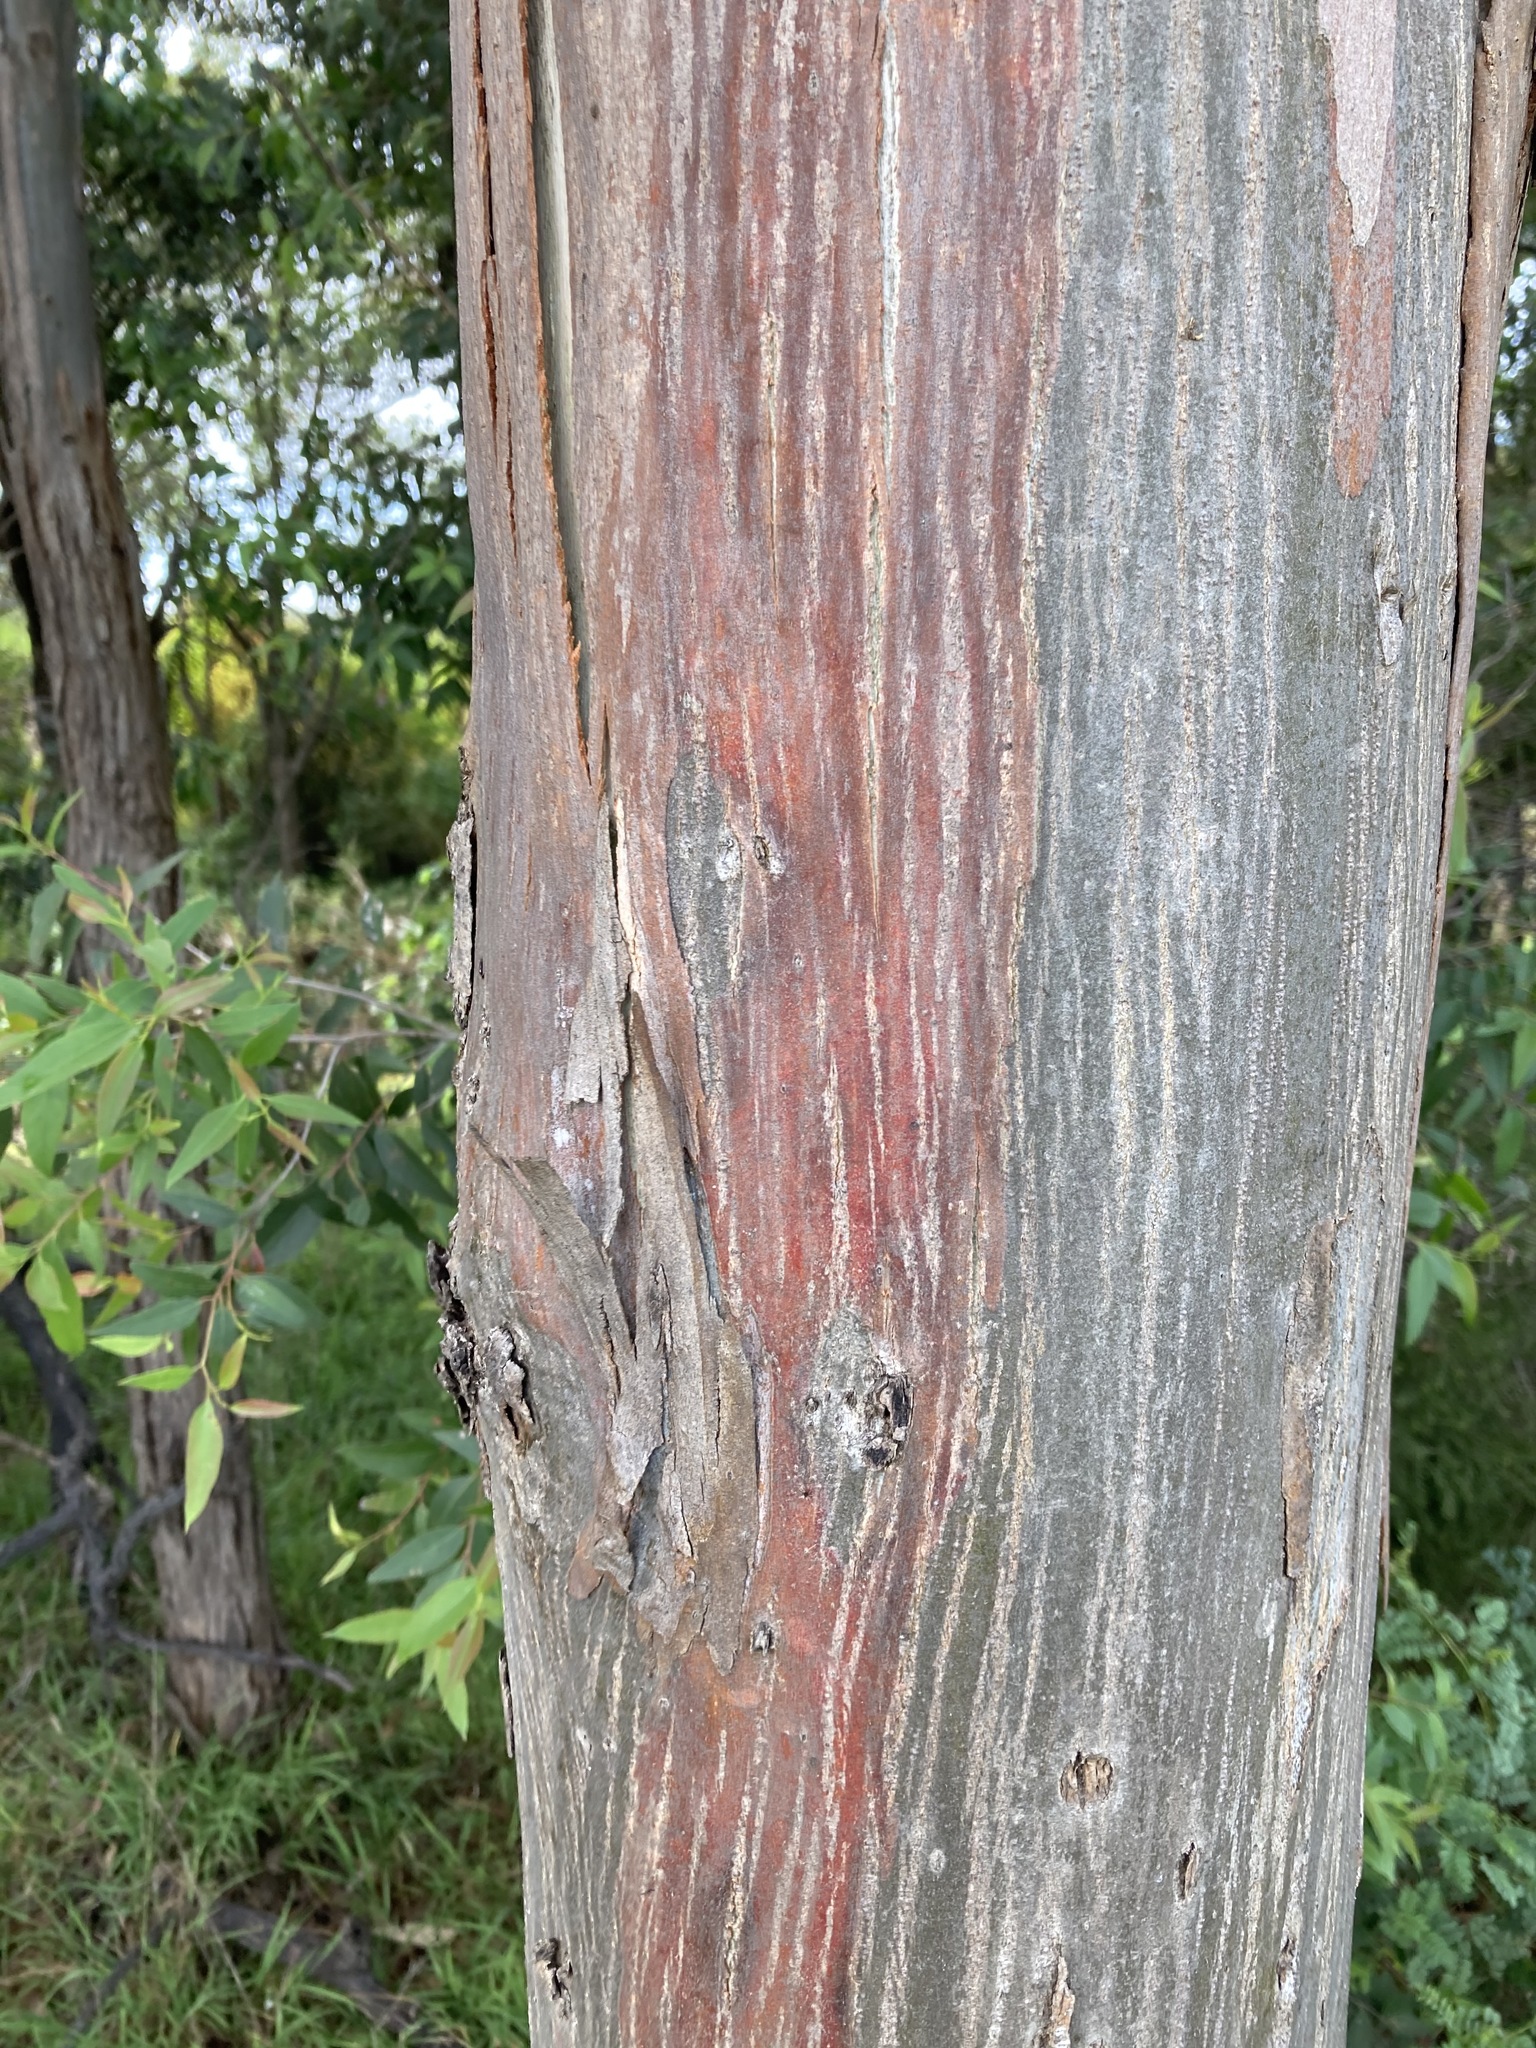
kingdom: Plantae
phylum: Tracheophyta
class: Magnoliopsida
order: Myrtales
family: Myrtaceae
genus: Eucalyptus
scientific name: Eucalyptus amplifolia
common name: Cabbage gum
